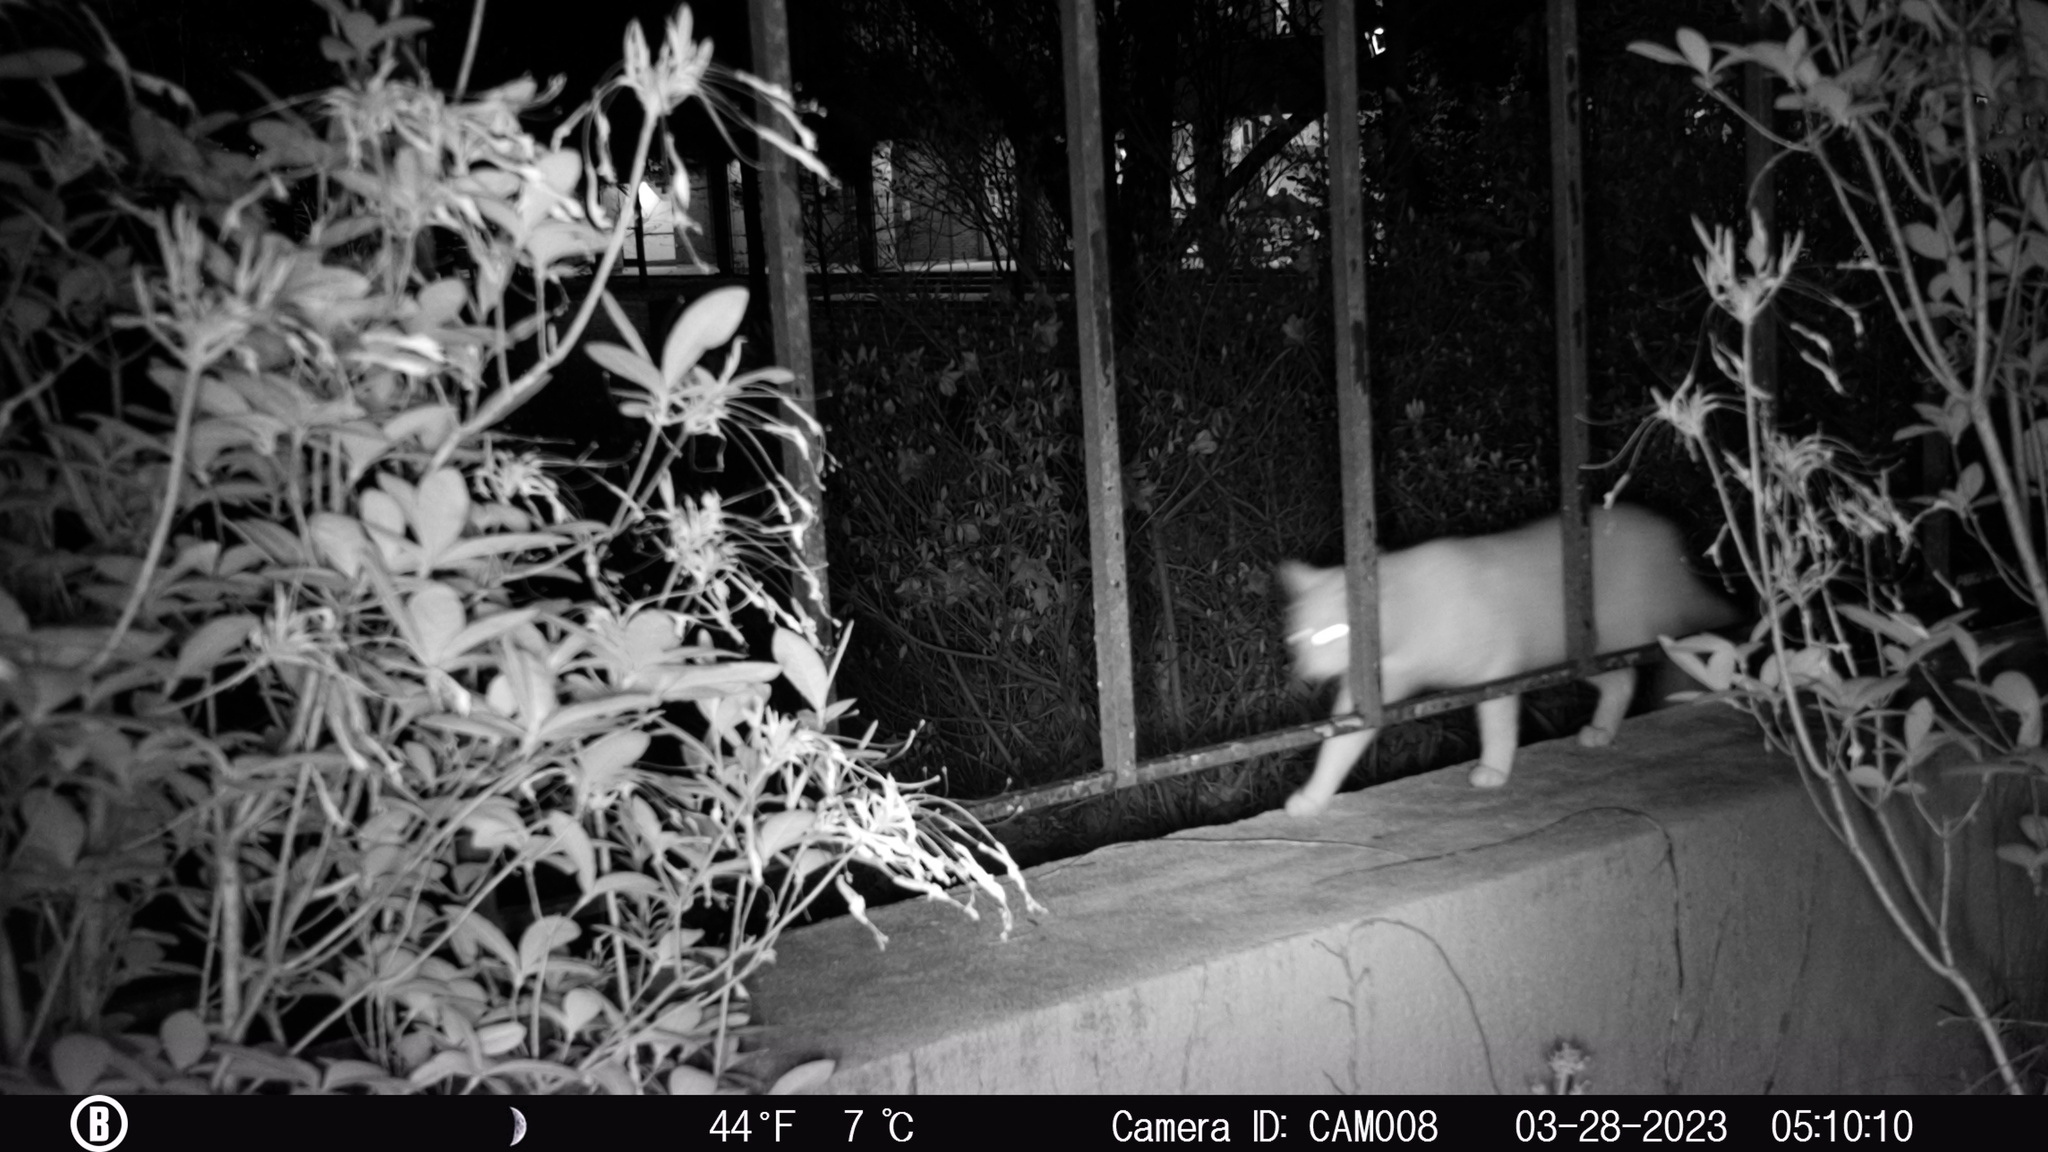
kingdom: Animalia
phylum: Chordata
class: Mammalia
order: Carnivora
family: Felidae
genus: Felis
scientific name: Felis catus
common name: Domestic cat
